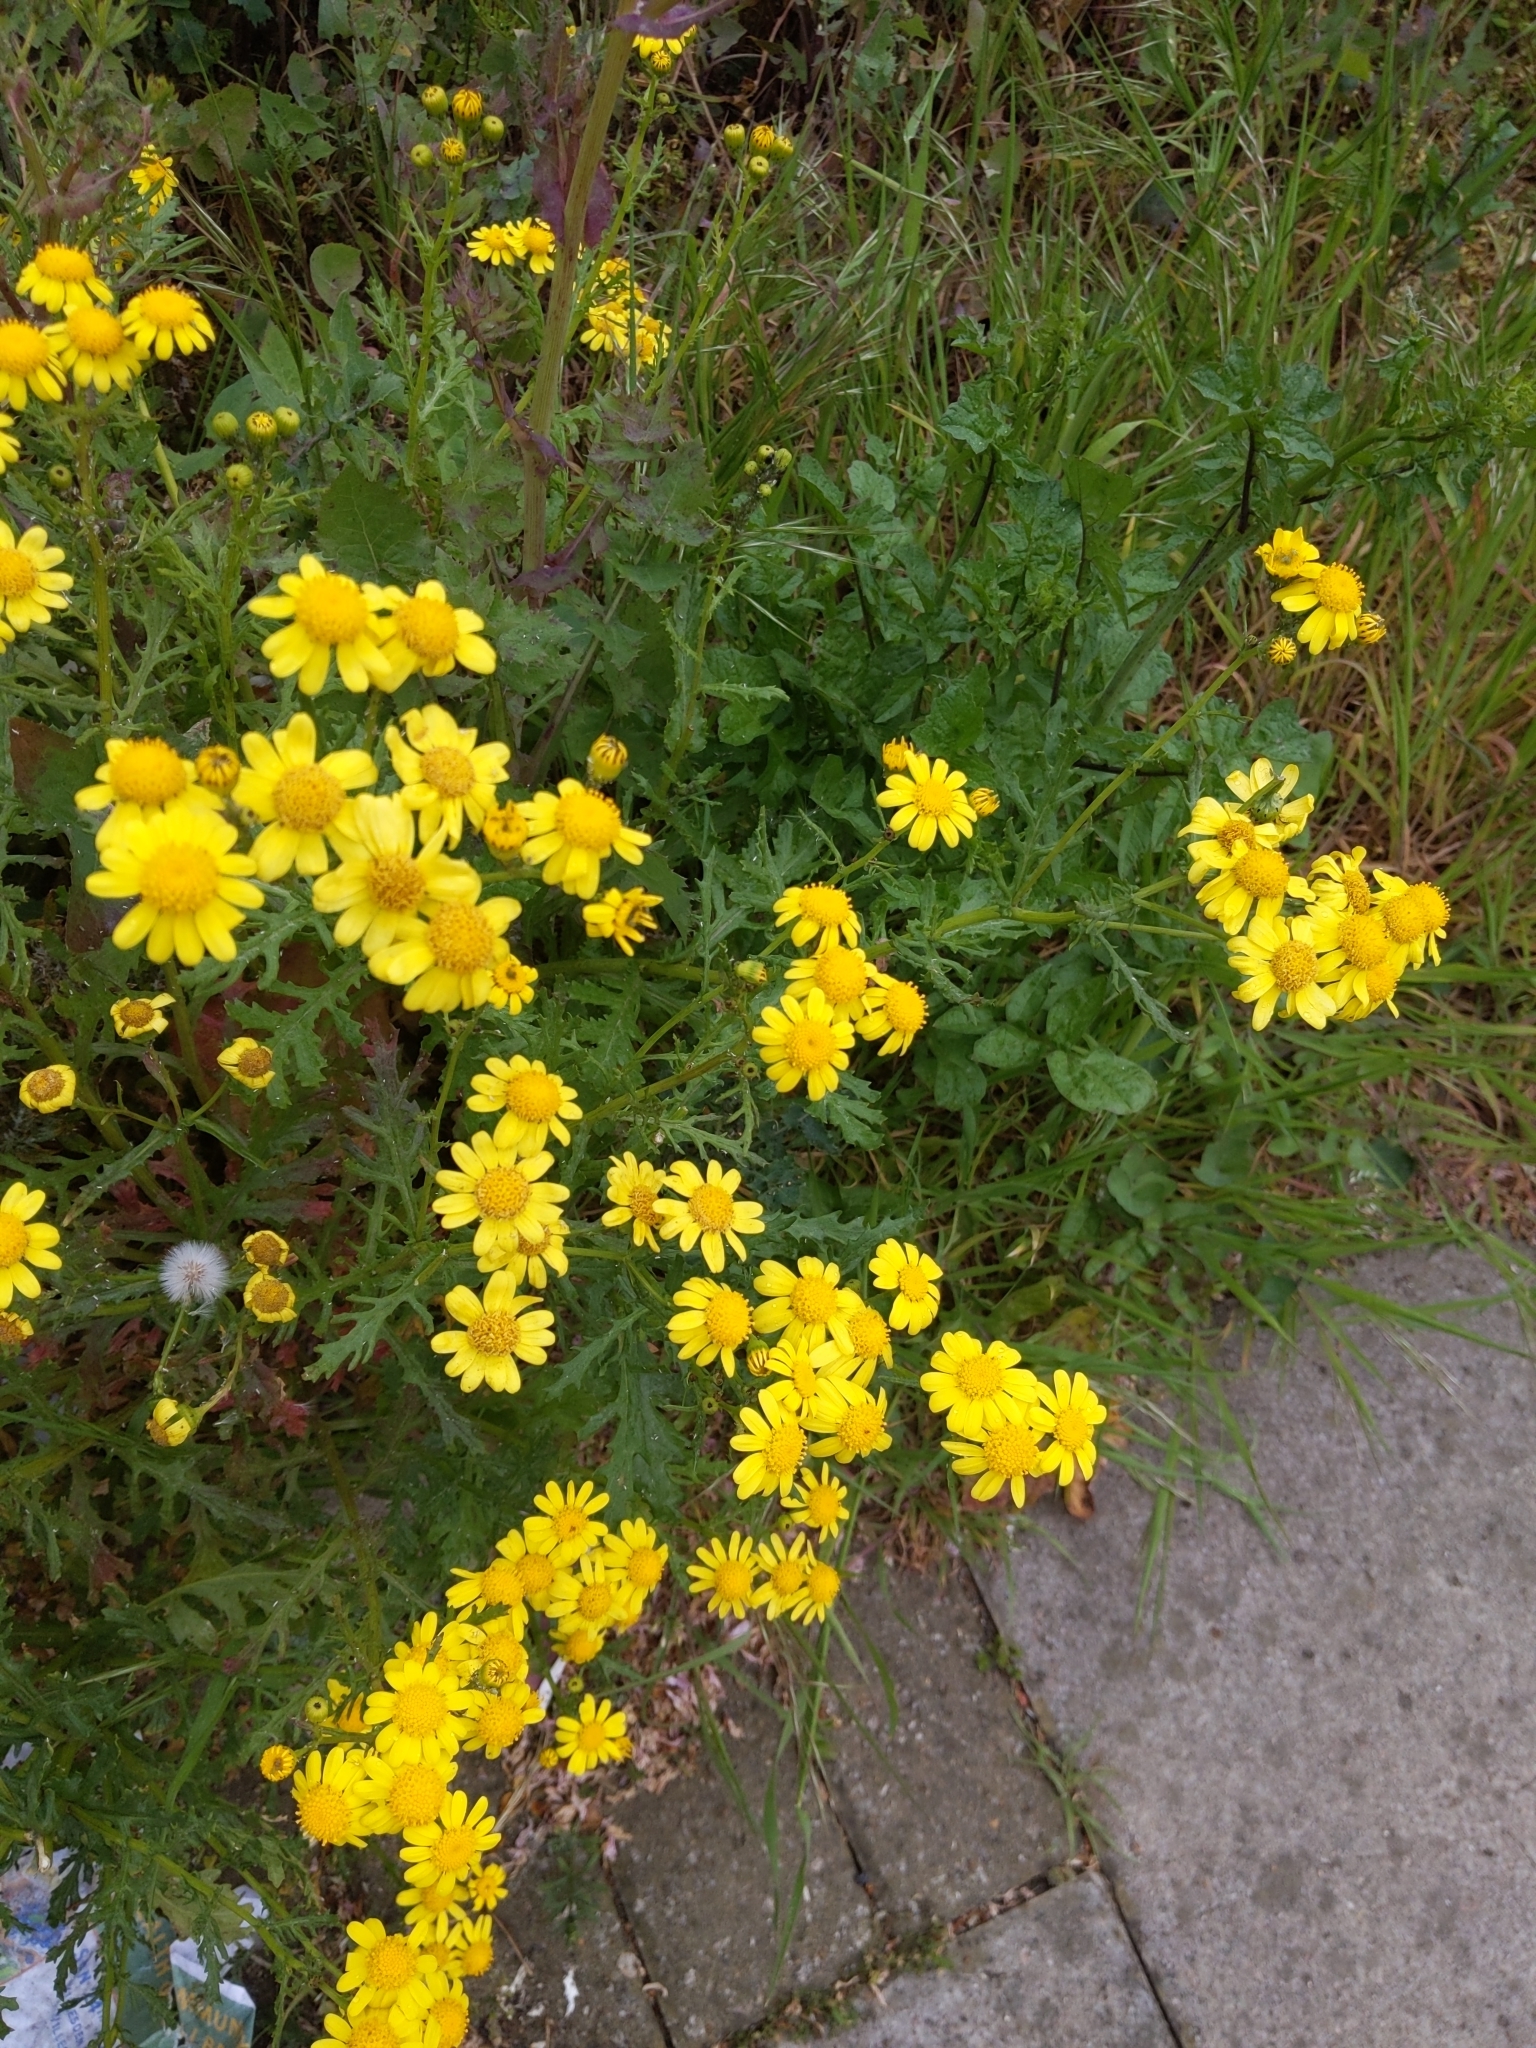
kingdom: Plantae
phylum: Tracheophyta
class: Magnoliopsida
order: Asterales
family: Asteraceae
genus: Senecio
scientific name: Senecio squalidus
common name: Oxford ragwort
